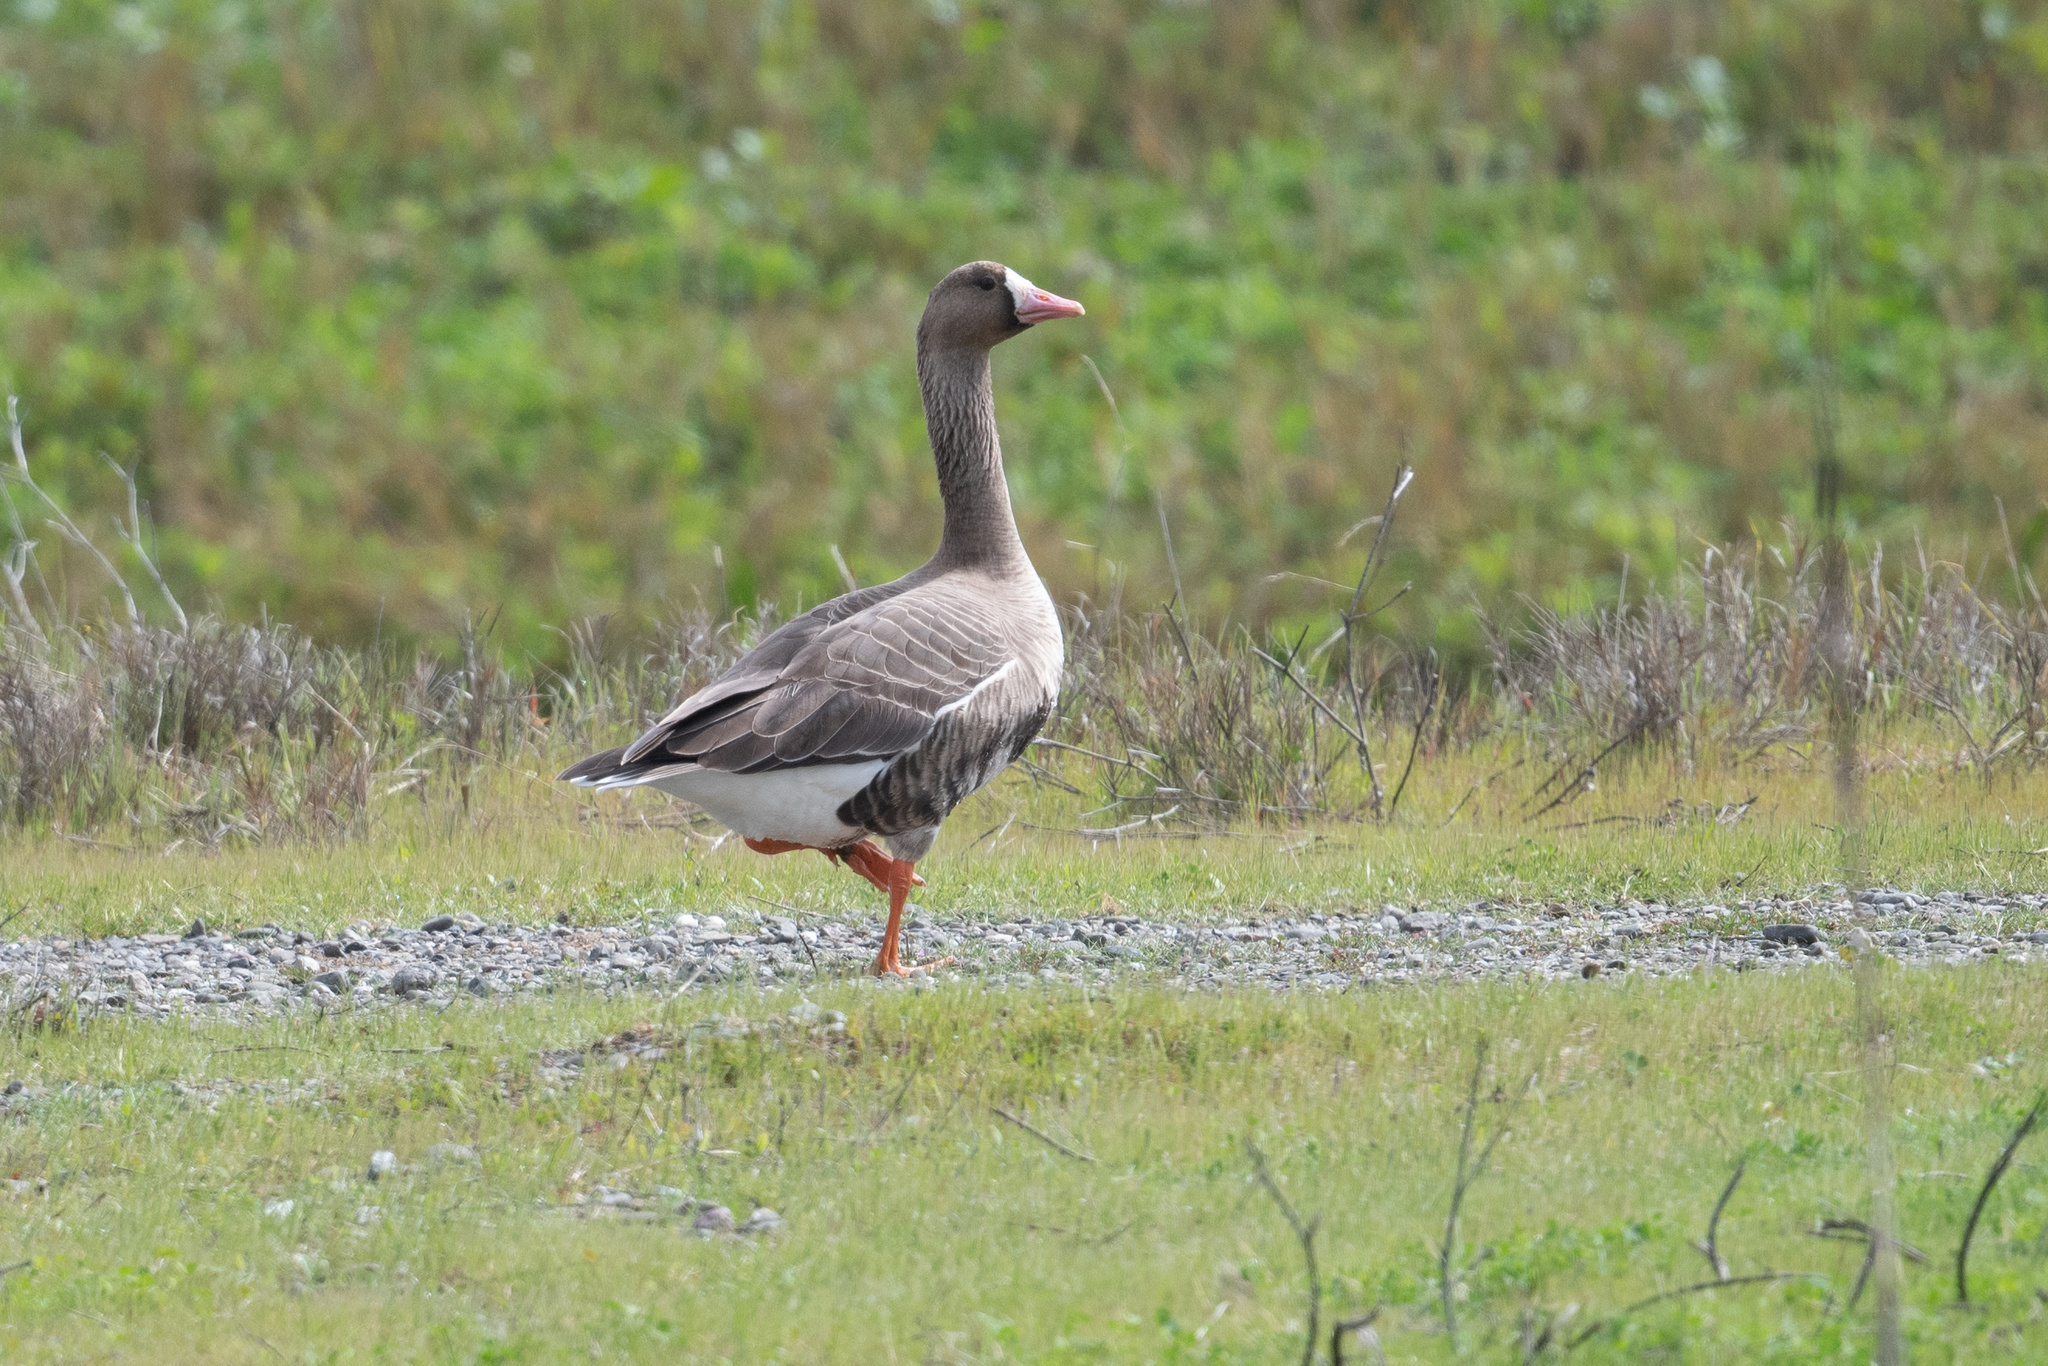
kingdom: Animalia
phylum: Chordata
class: Aves
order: Anseriformes
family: Anatidae
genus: Anser
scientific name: Anser albifrons
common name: Greater white-fronted goose
